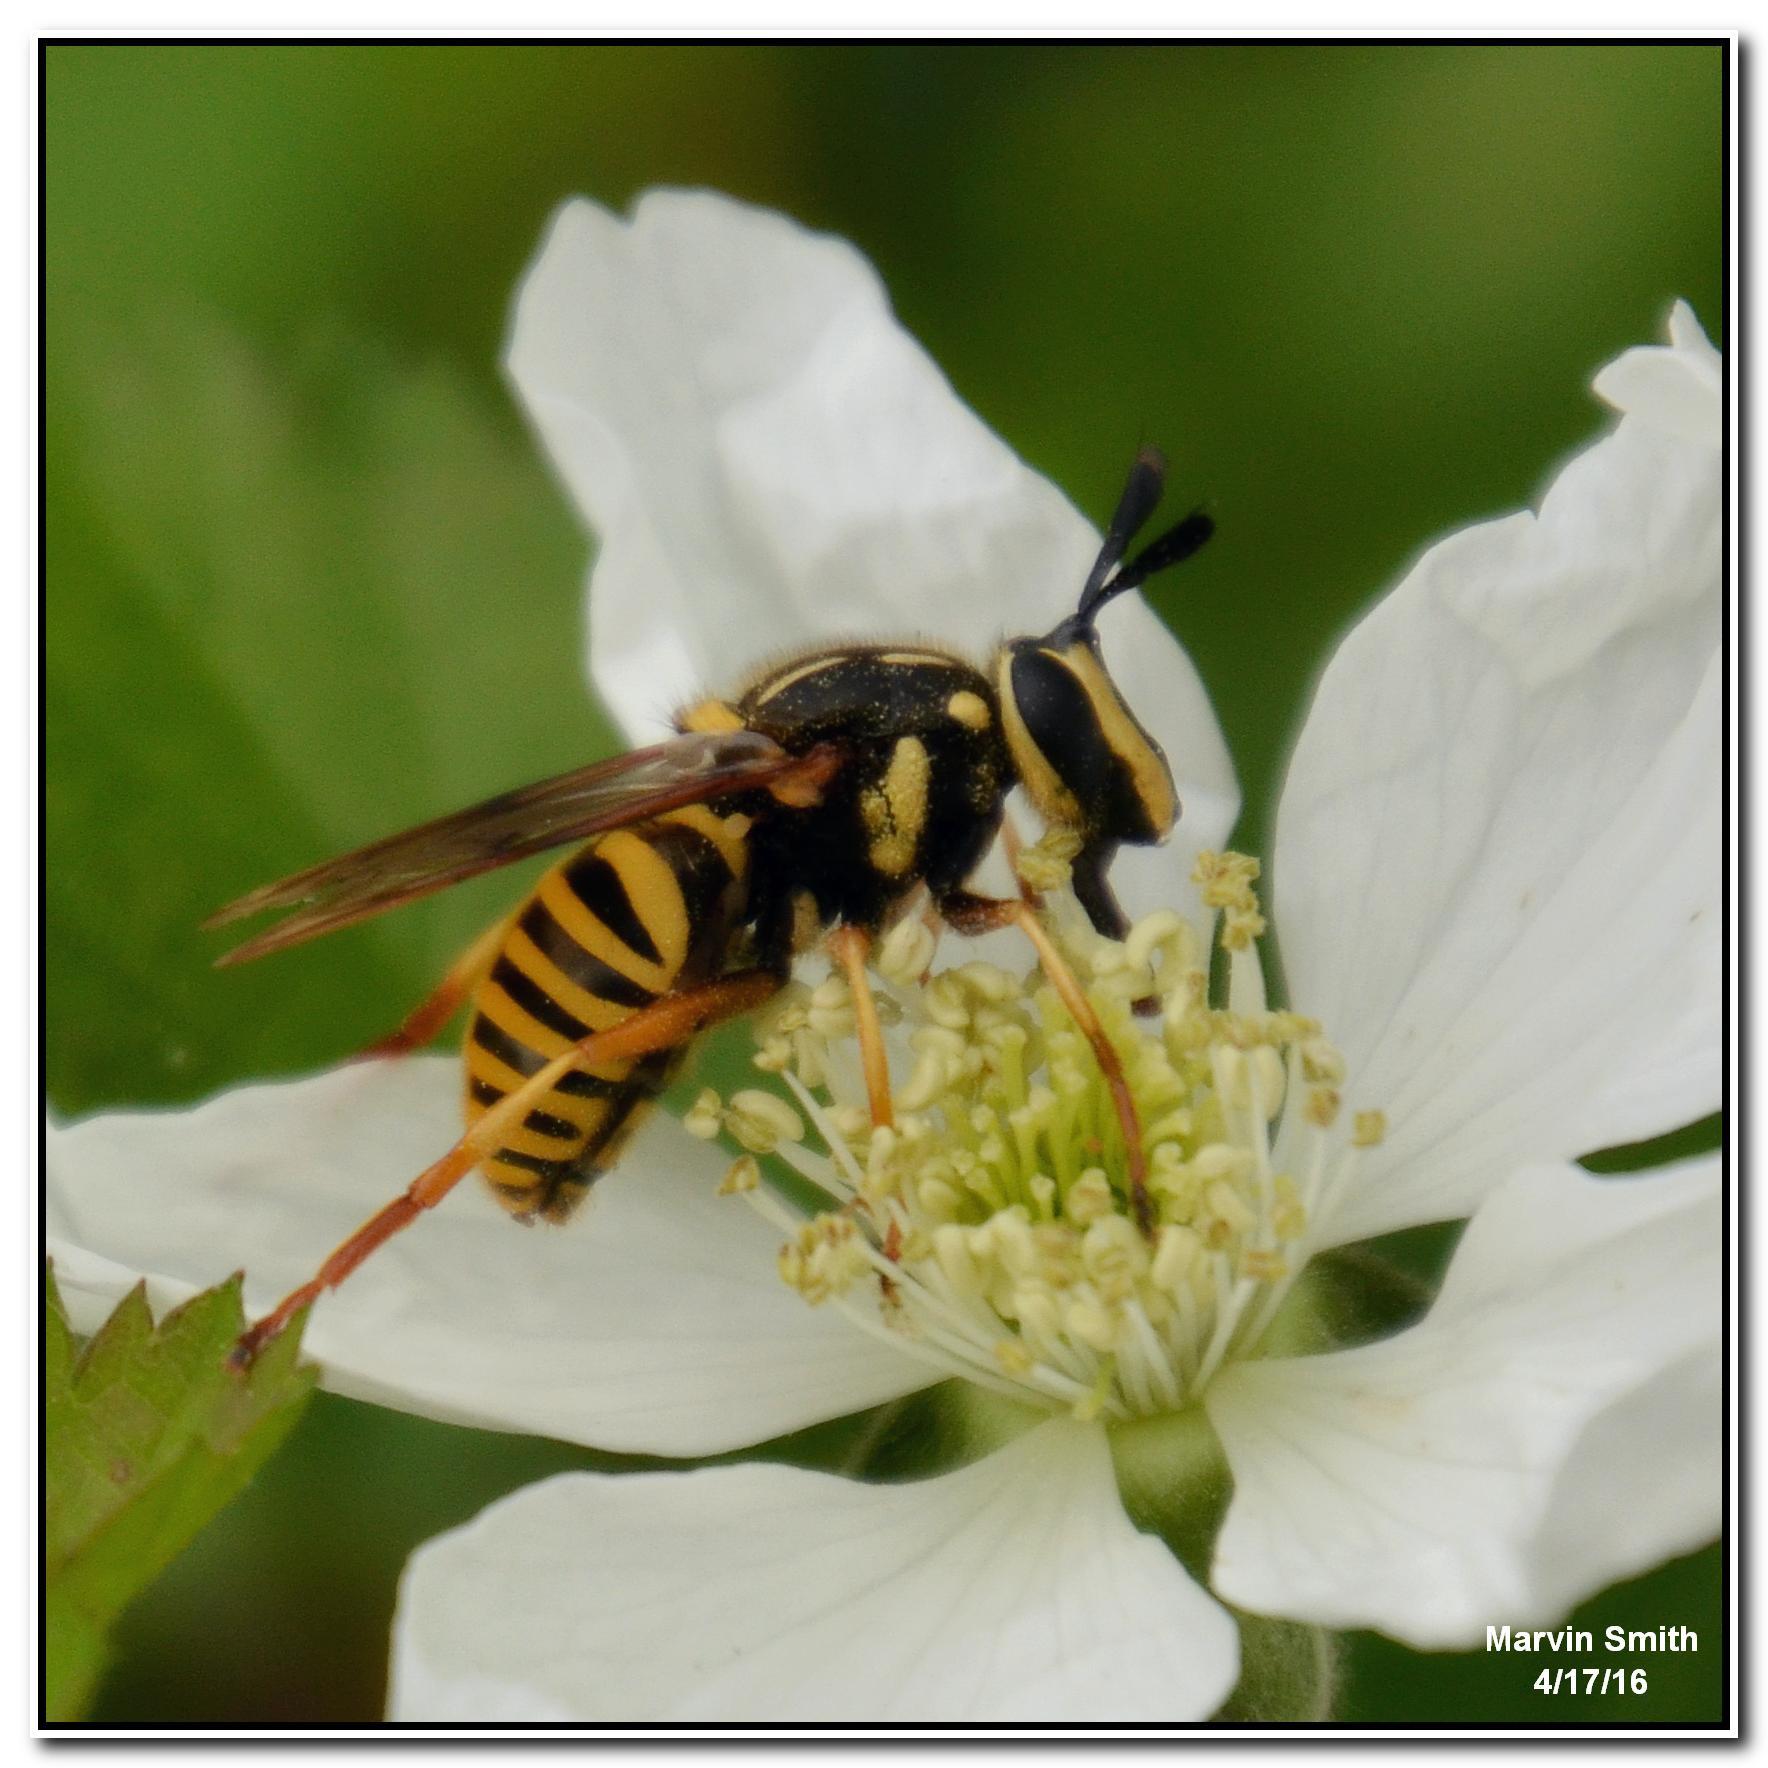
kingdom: Animalia
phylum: Arthropoda
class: Insecta
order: Diptera
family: Syrphidae
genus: Sphecomyia
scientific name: Sphecomyia vittata
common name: Long-horned yellowjacket fly
